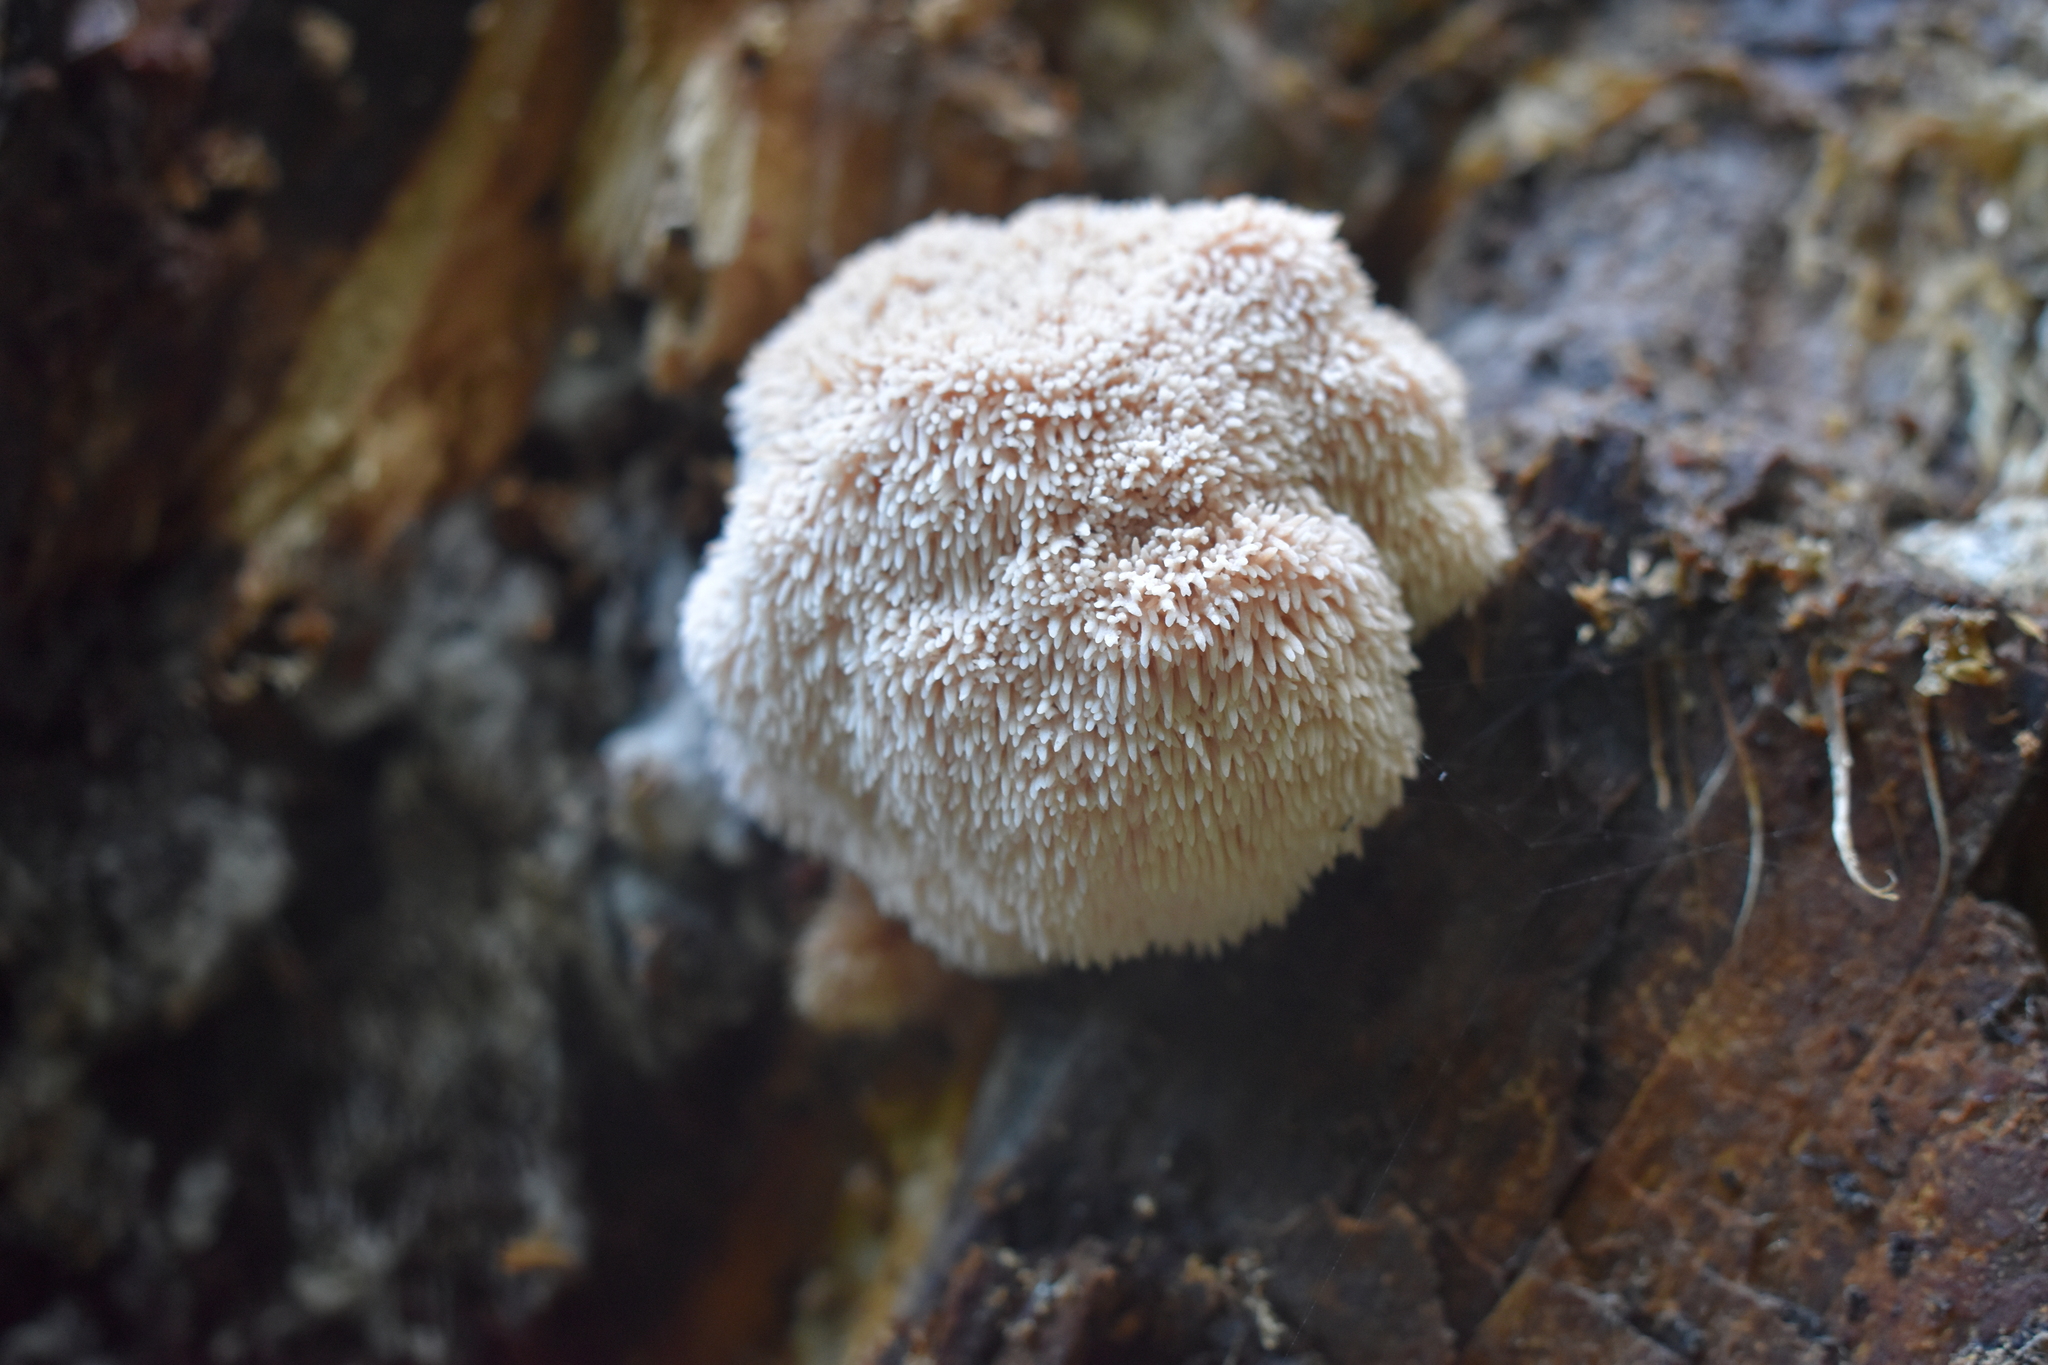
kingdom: Fungi
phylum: Basidiomycota
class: Agaricomycetes
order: Russulales
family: Hericiaceae
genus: Hericium
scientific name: Hericium novae-zealandiae
